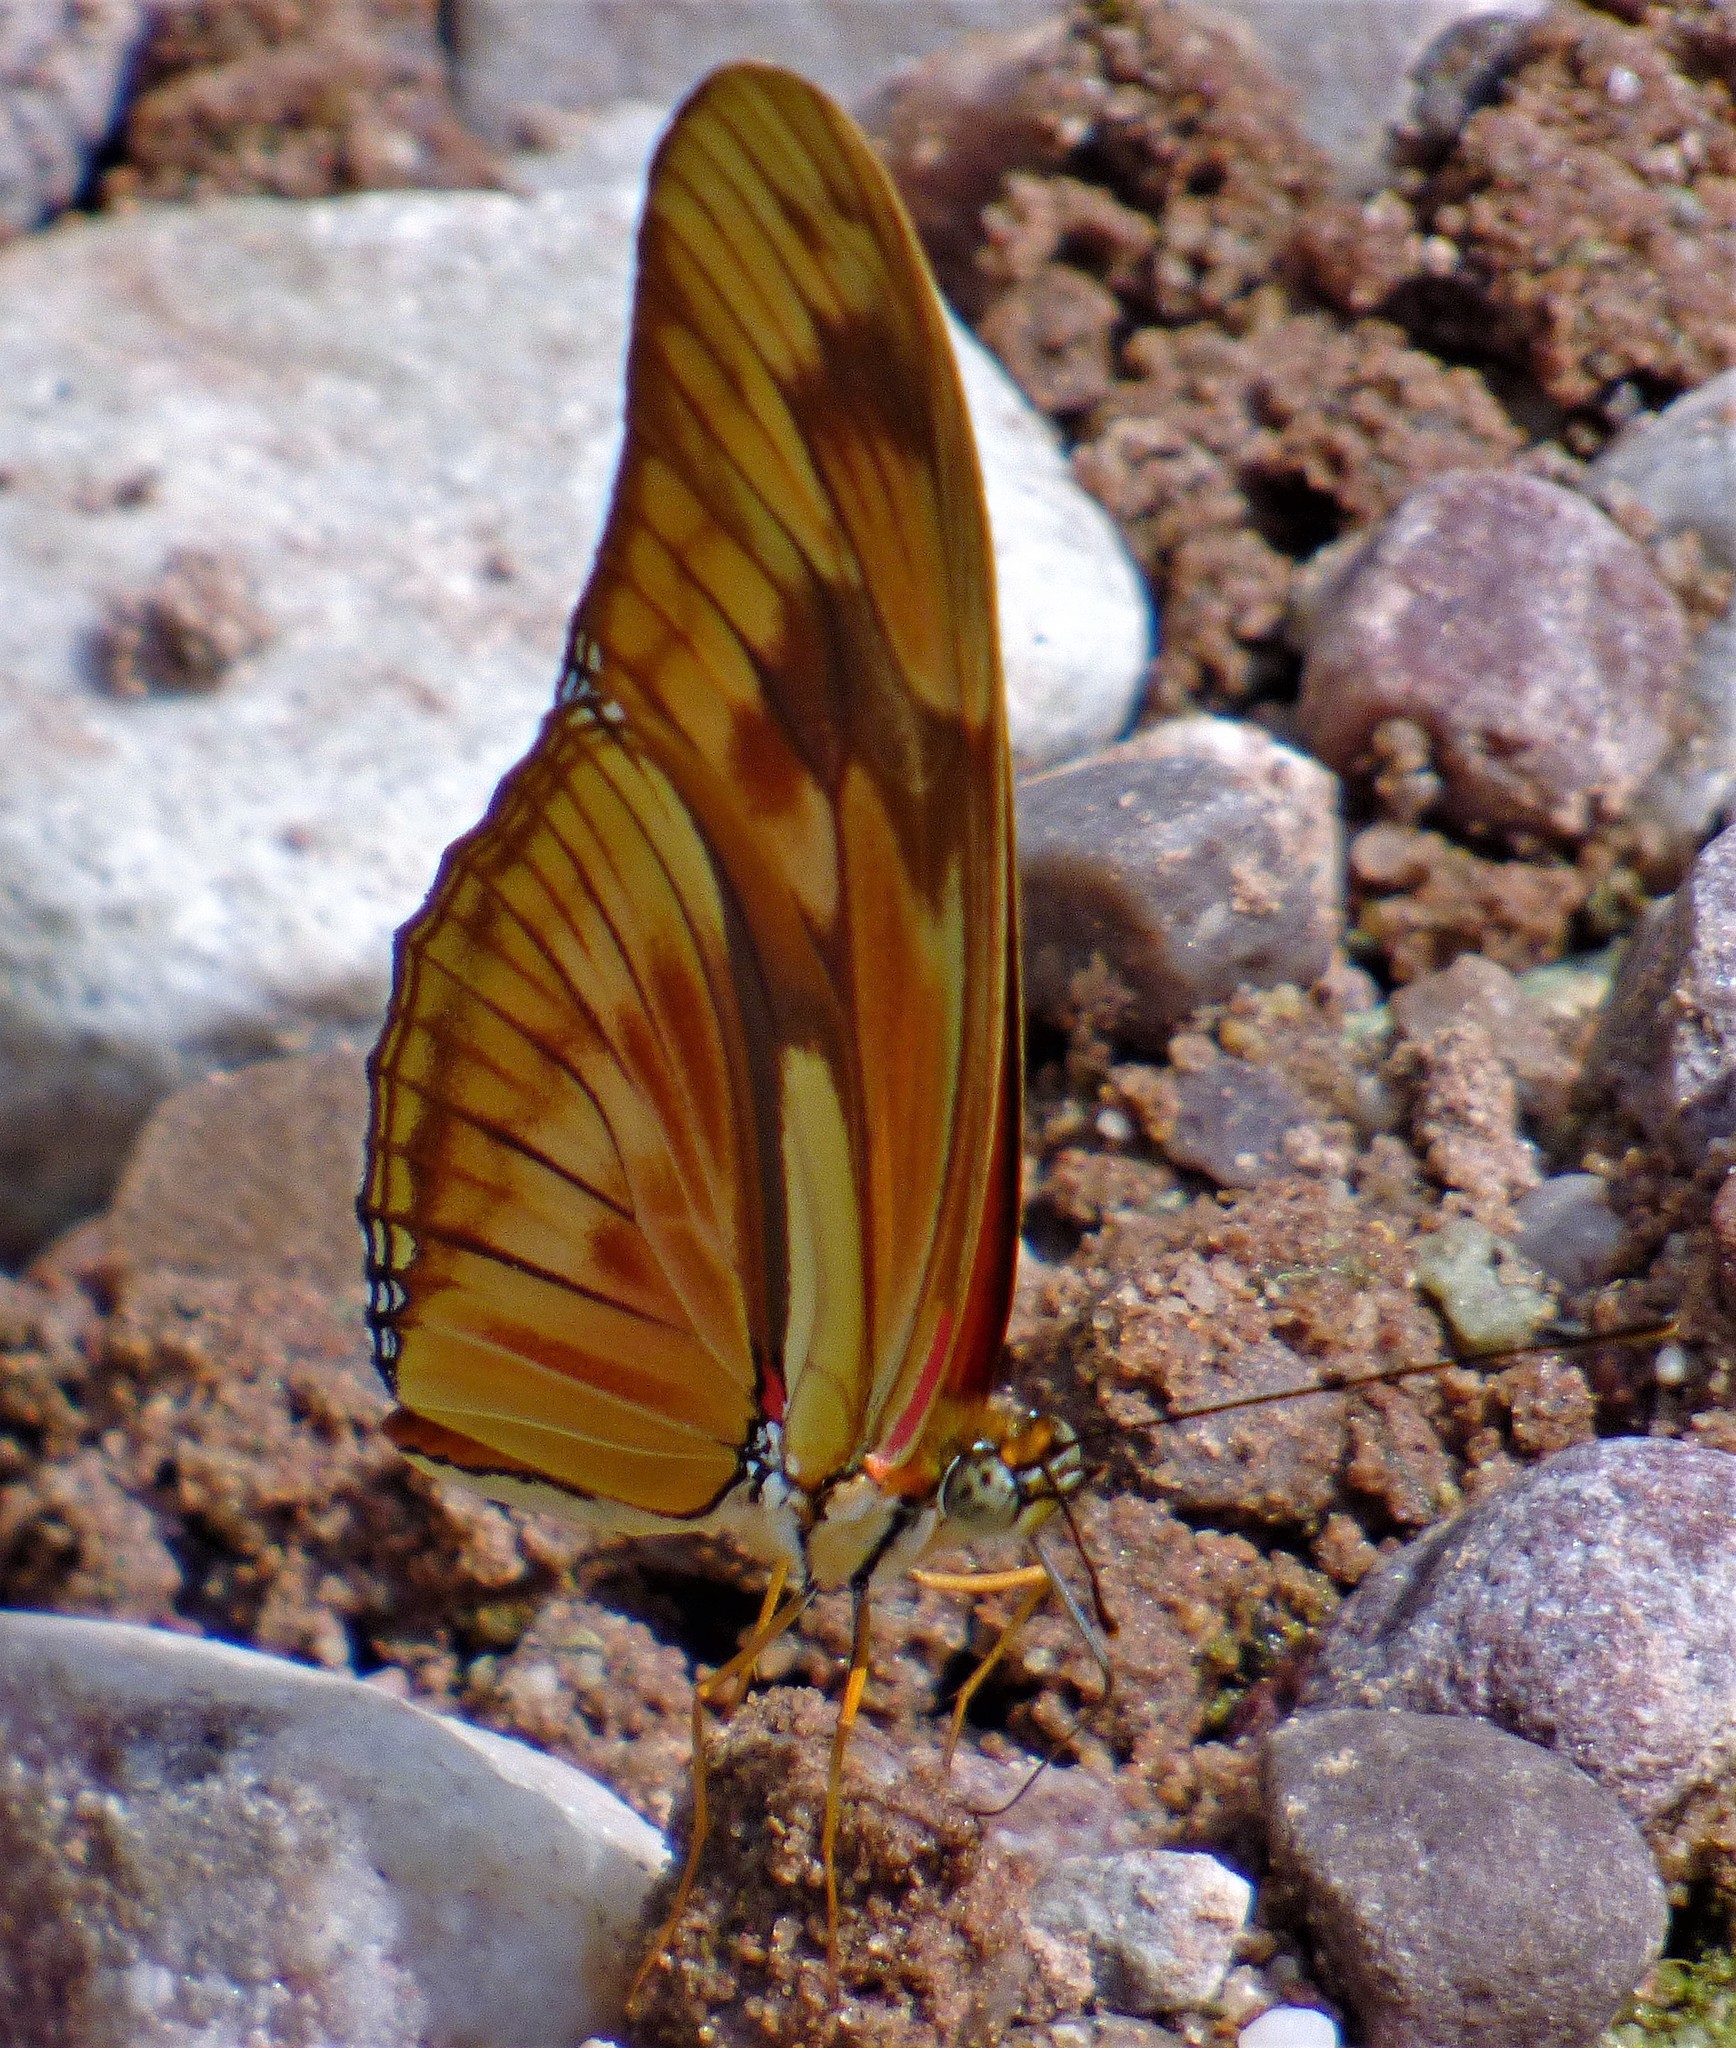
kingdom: Animalia
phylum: Arthropoda
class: Insecta
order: Lepidoptera
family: Nymphalidae
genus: Dryas
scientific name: Dryas iulia
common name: Flambeau
